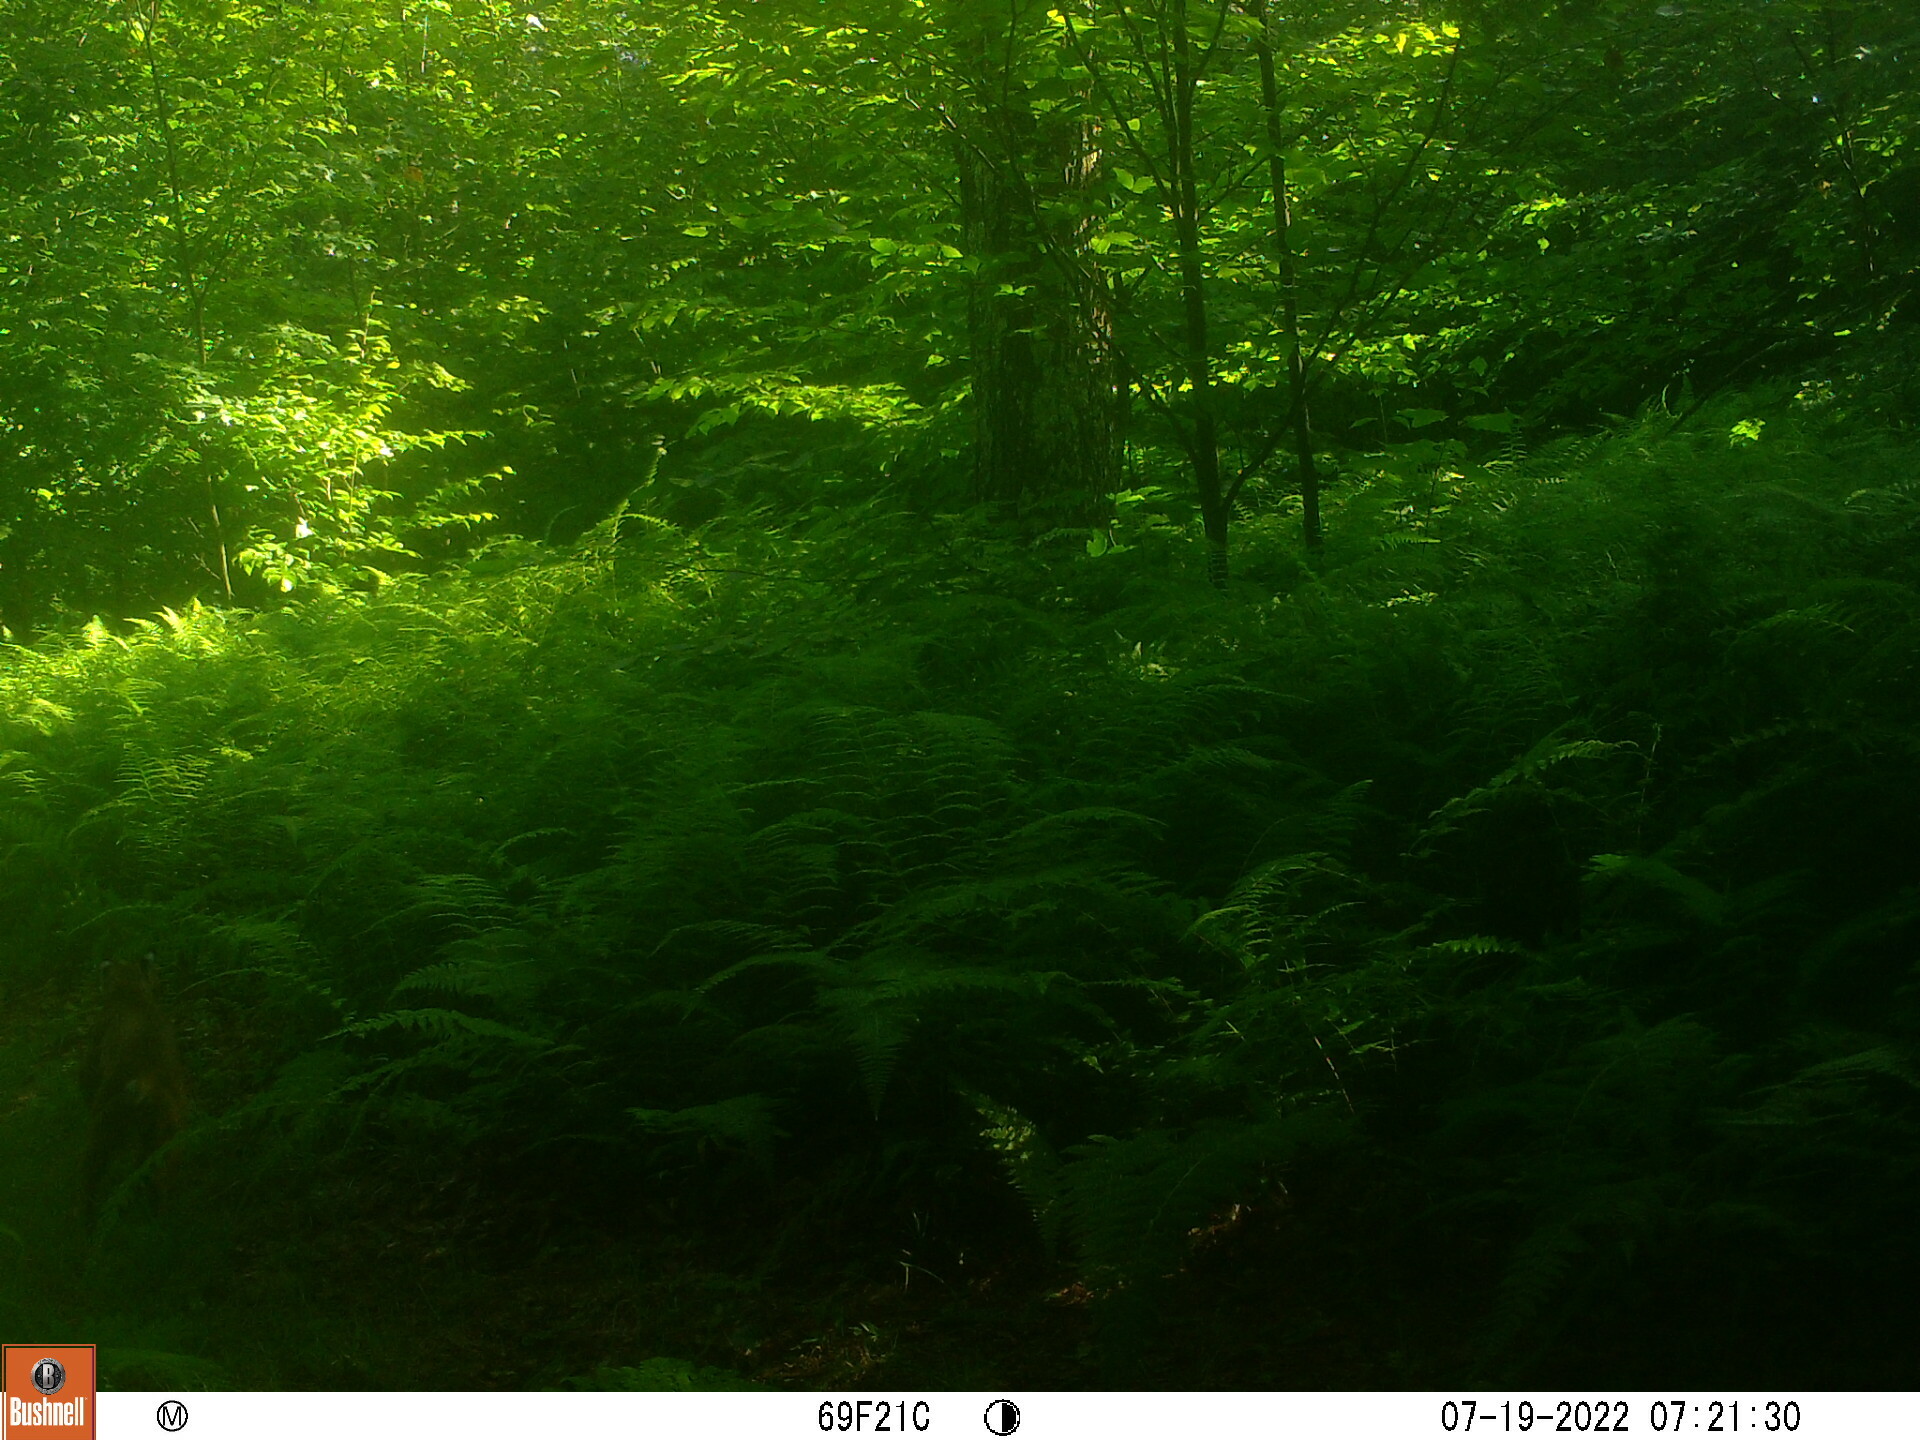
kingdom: Animalia
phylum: Chordata
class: Mammalia
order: Carnivora
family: Felidae
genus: Lynx
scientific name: Lynx rufus
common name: Bobcat
